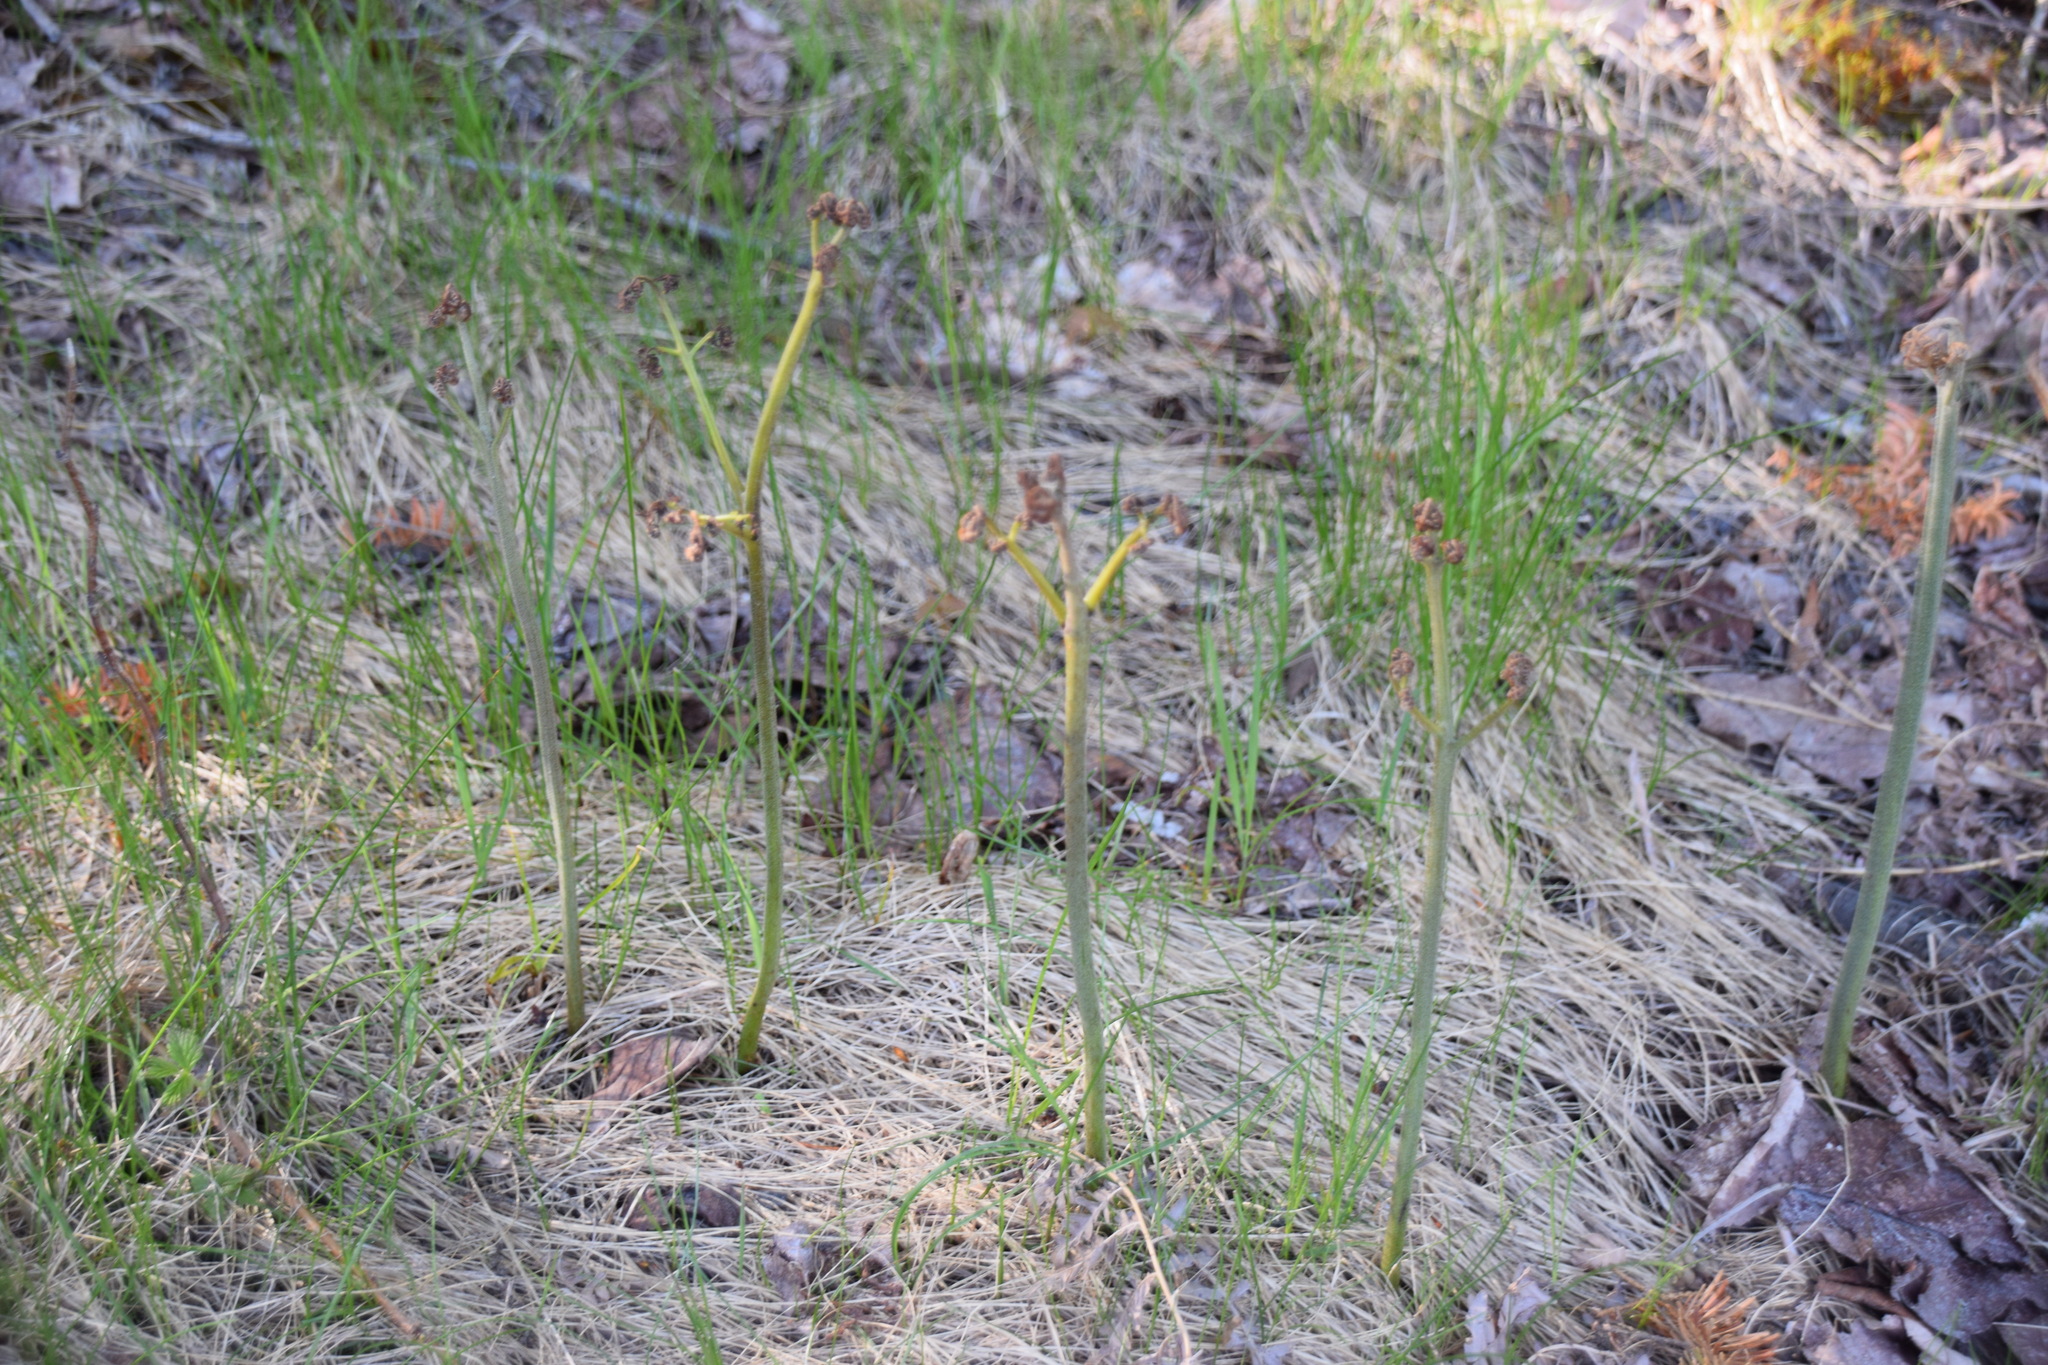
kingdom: Plantae
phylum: Tracheophyta
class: Polypodiopsida
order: Polypodiales
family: Dennstaedtiaceae
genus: Pteridium
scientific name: Pteridium aquilinum
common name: Bracken
